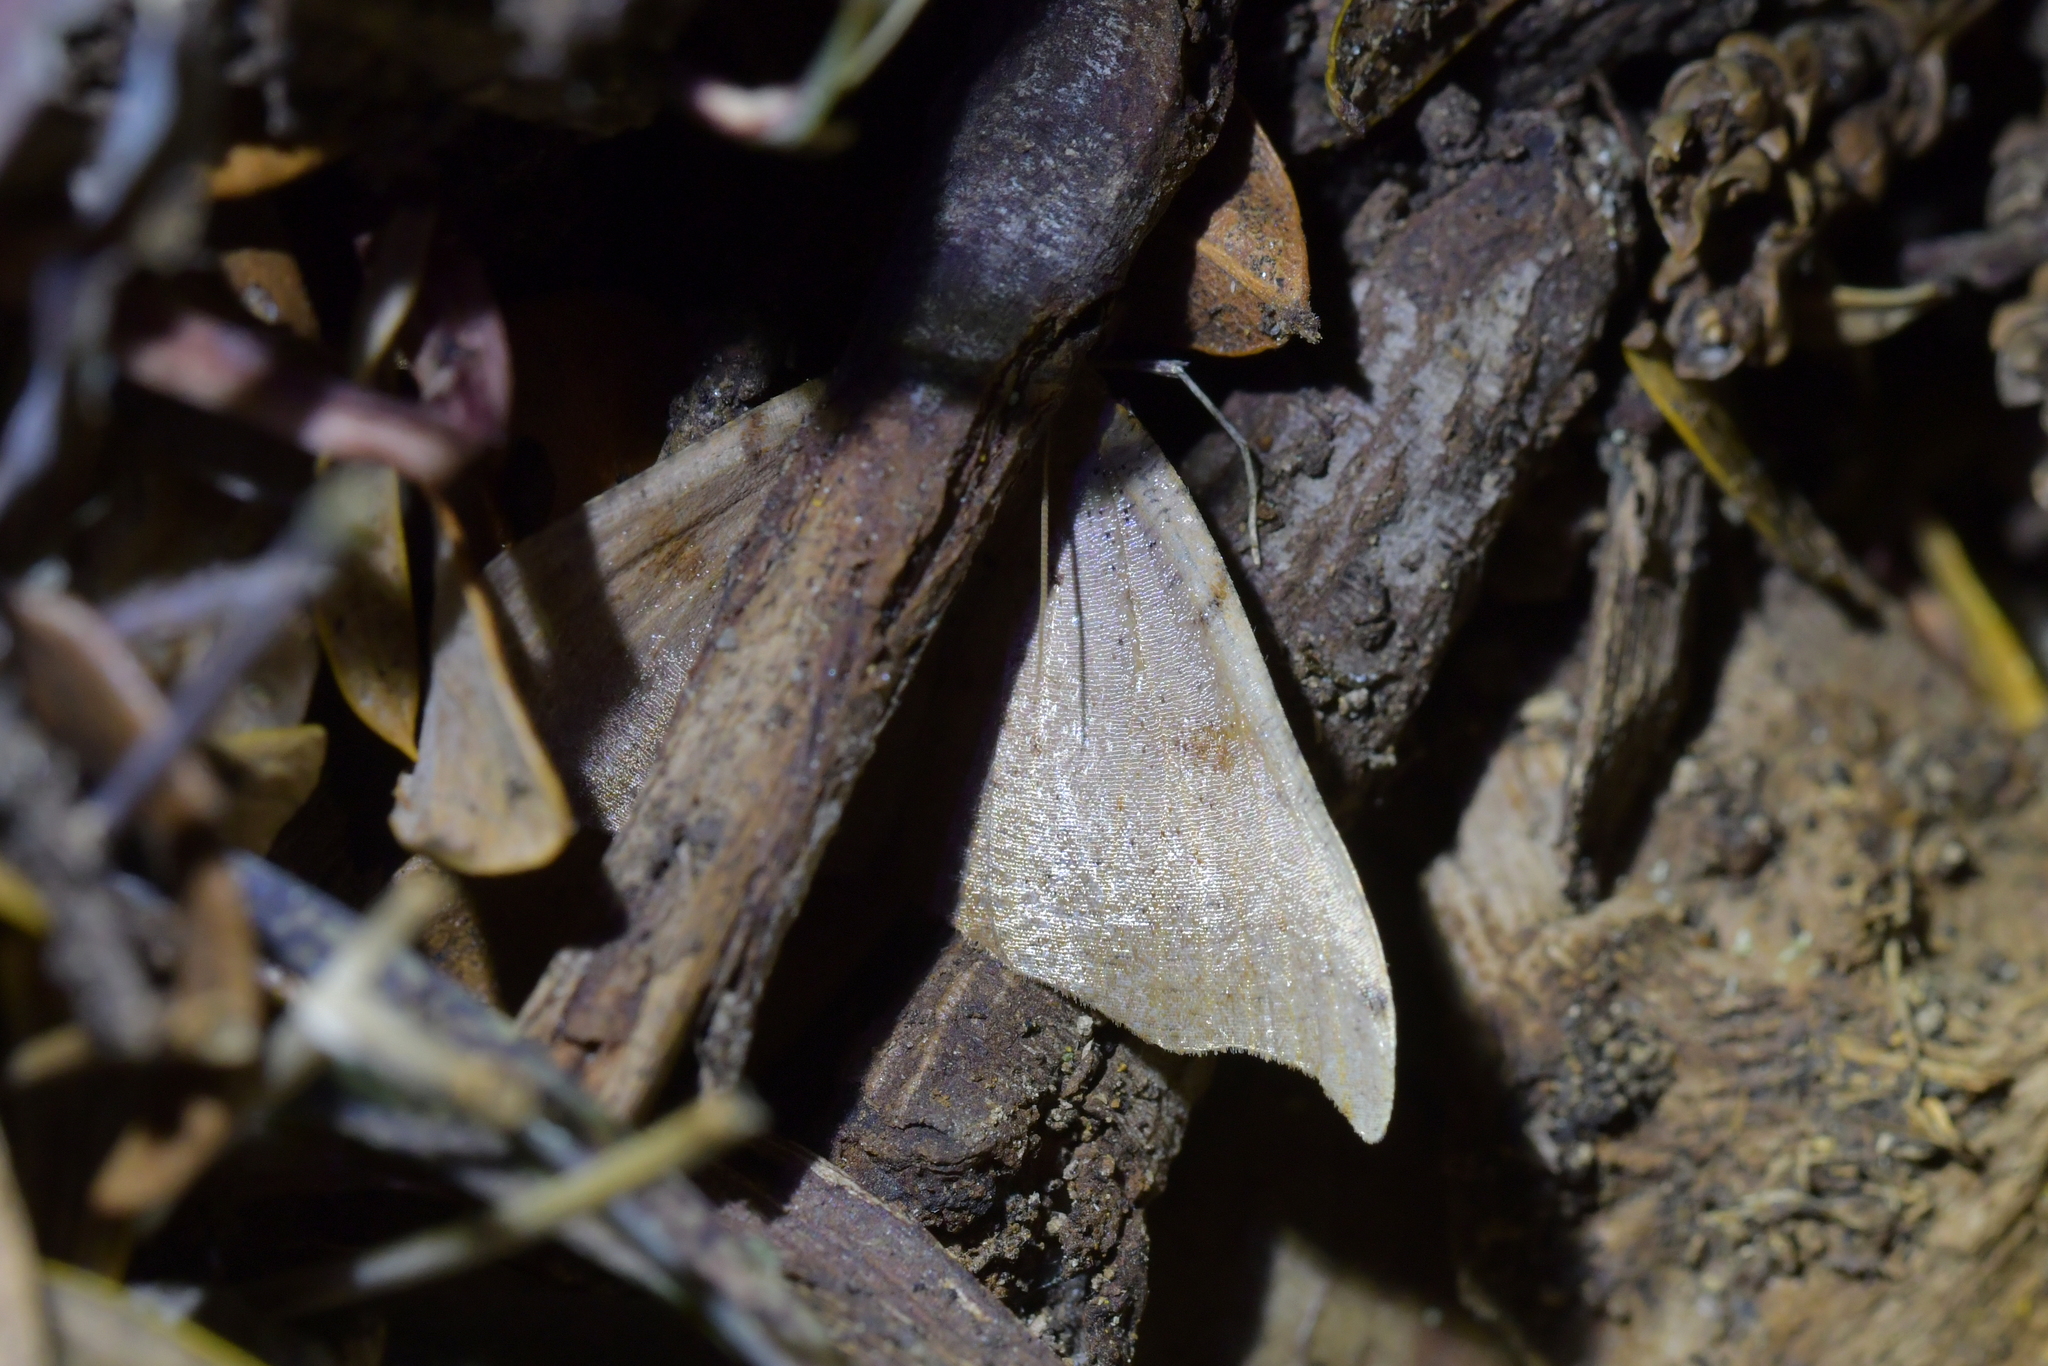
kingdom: Animalia
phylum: Arthropoda
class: Insecta
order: Lepidoptera
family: Geometridae
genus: Sarisa
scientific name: Sarisa muriferata
